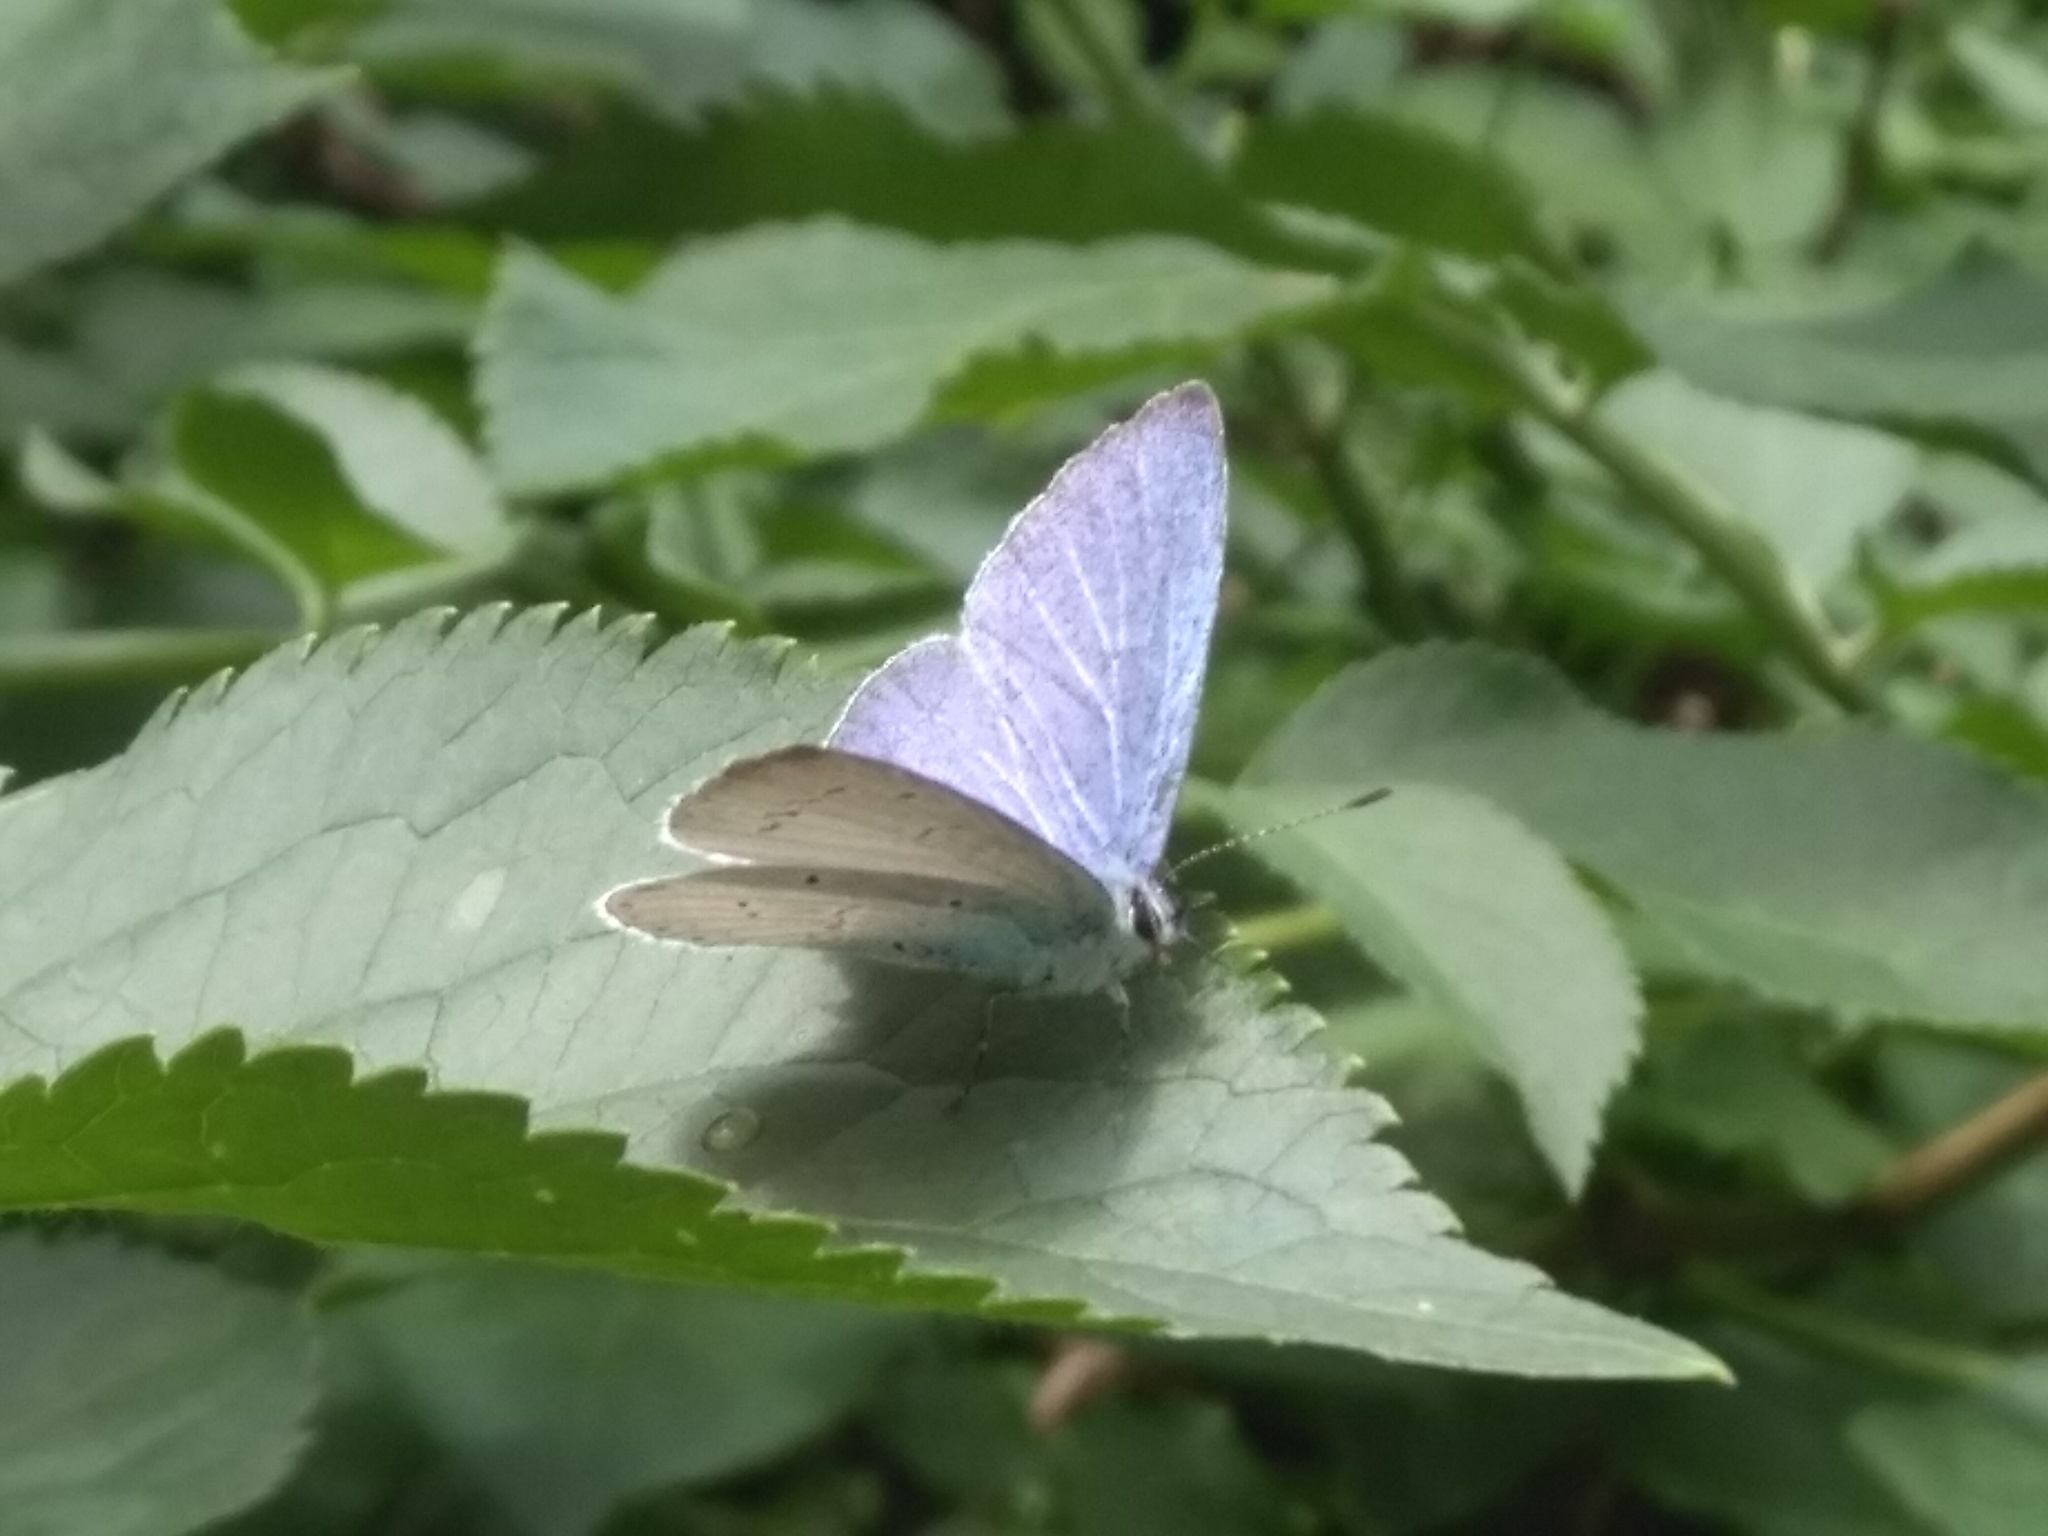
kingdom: Animalia
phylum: Arthropoda
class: Insecta
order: Lepidoptera
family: Lycaenidae
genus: Celastrina
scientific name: Celastrina argiolus
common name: Holly blue
